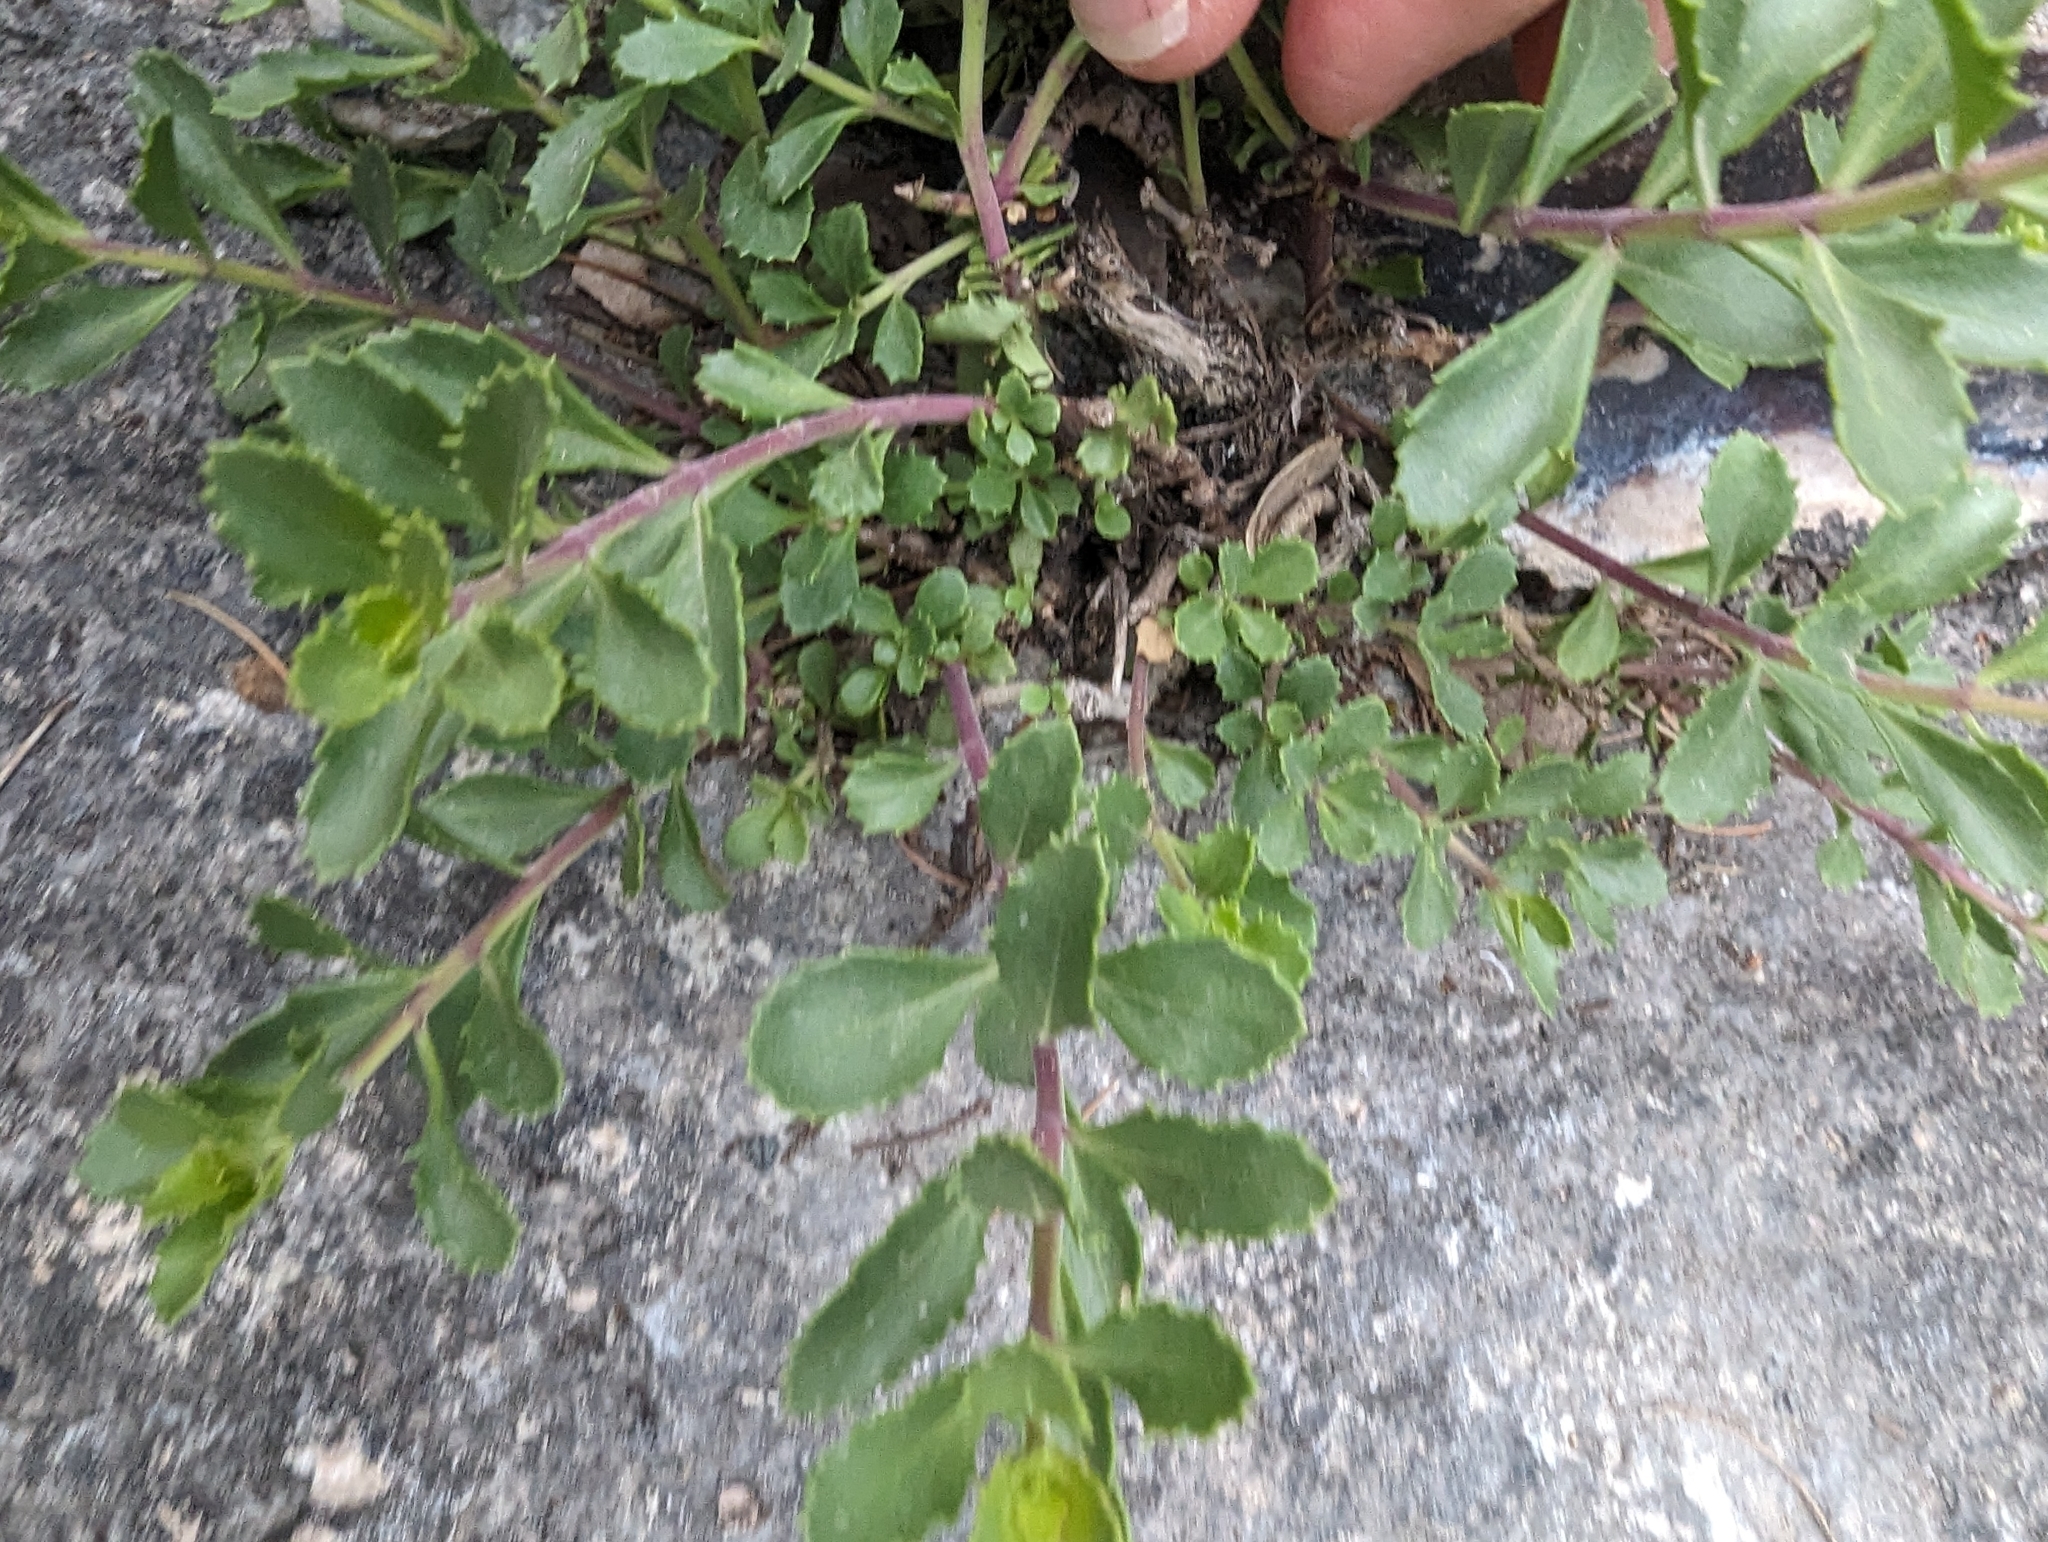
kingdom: Plantae
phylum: Tracheophyta
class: Magnoliopsida
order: Lamiales
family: Plantaginaceae
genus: Penstemon
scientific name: Penstemon baccharifolius
